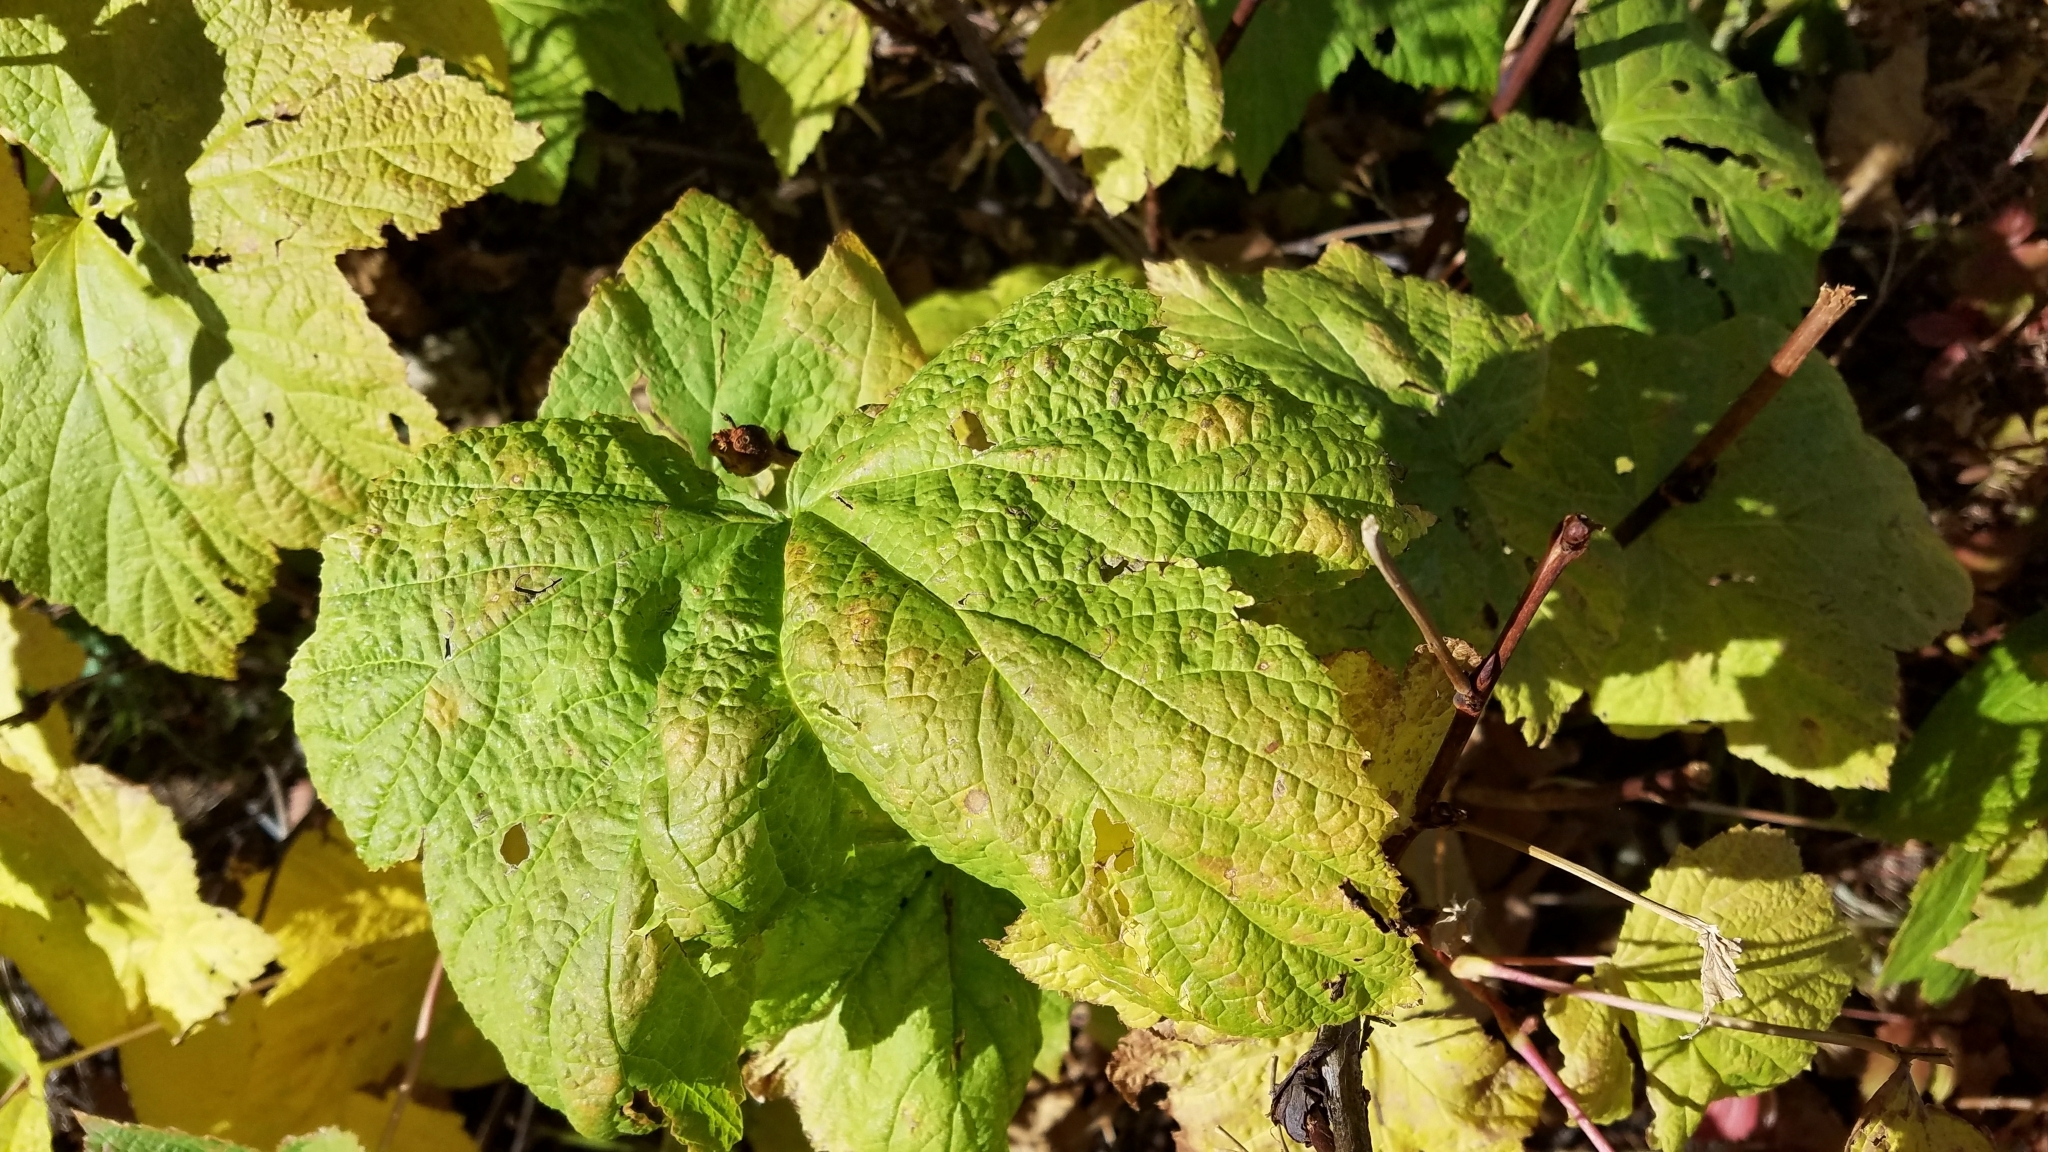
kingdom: Plantae
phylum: Tracheophyta
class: Magnoliopsida
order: Rosales
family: Rosaceae
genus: Rubus
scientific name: Rubus parviflorus
